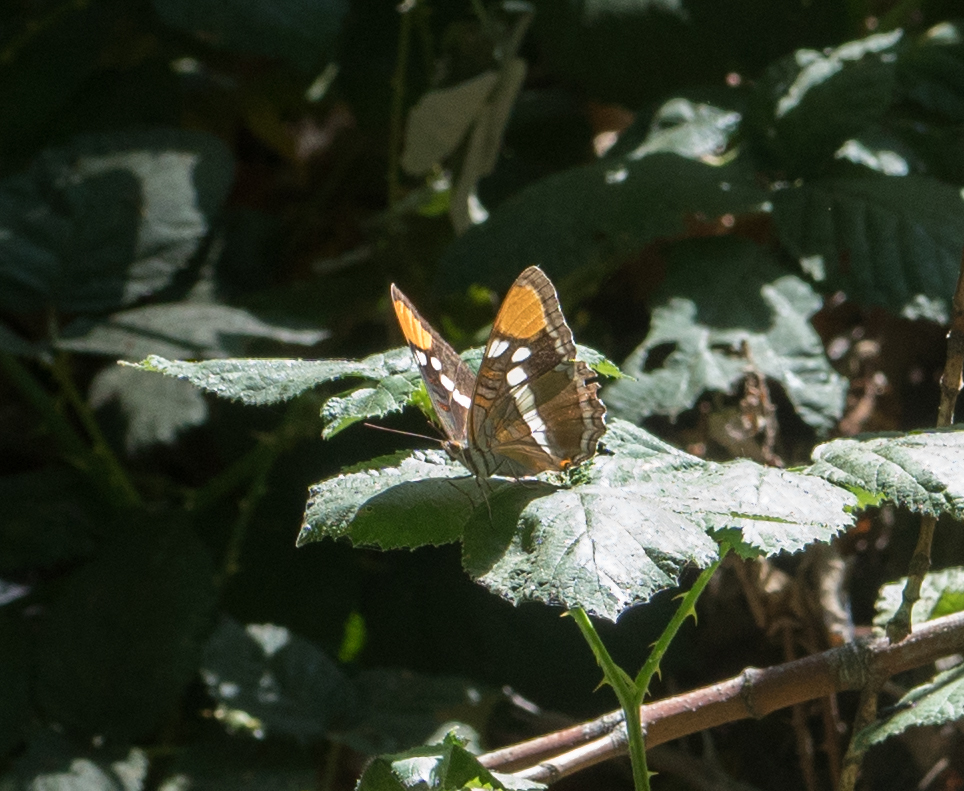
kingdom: Animalia
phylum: Arthropoda
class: Insecta
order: Lepidoptera
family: Nymphalidae
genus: Limenitis
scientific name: Limenitis bredowii
